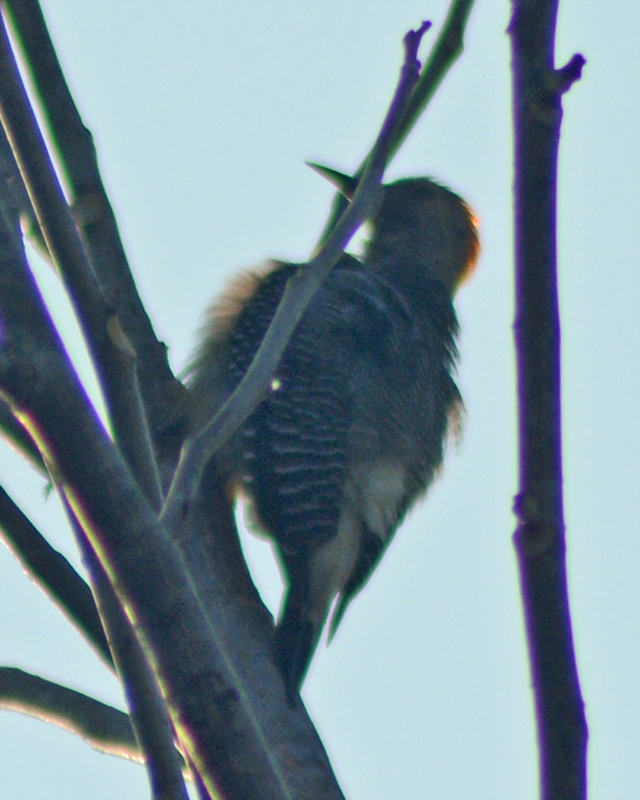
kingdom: Animalia
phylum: Chordata
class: Aves
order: Piciformes
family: Picidae
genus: Melanerpes
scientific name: Melanerpes aurifrons
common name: Golden-fronted woodpecker
